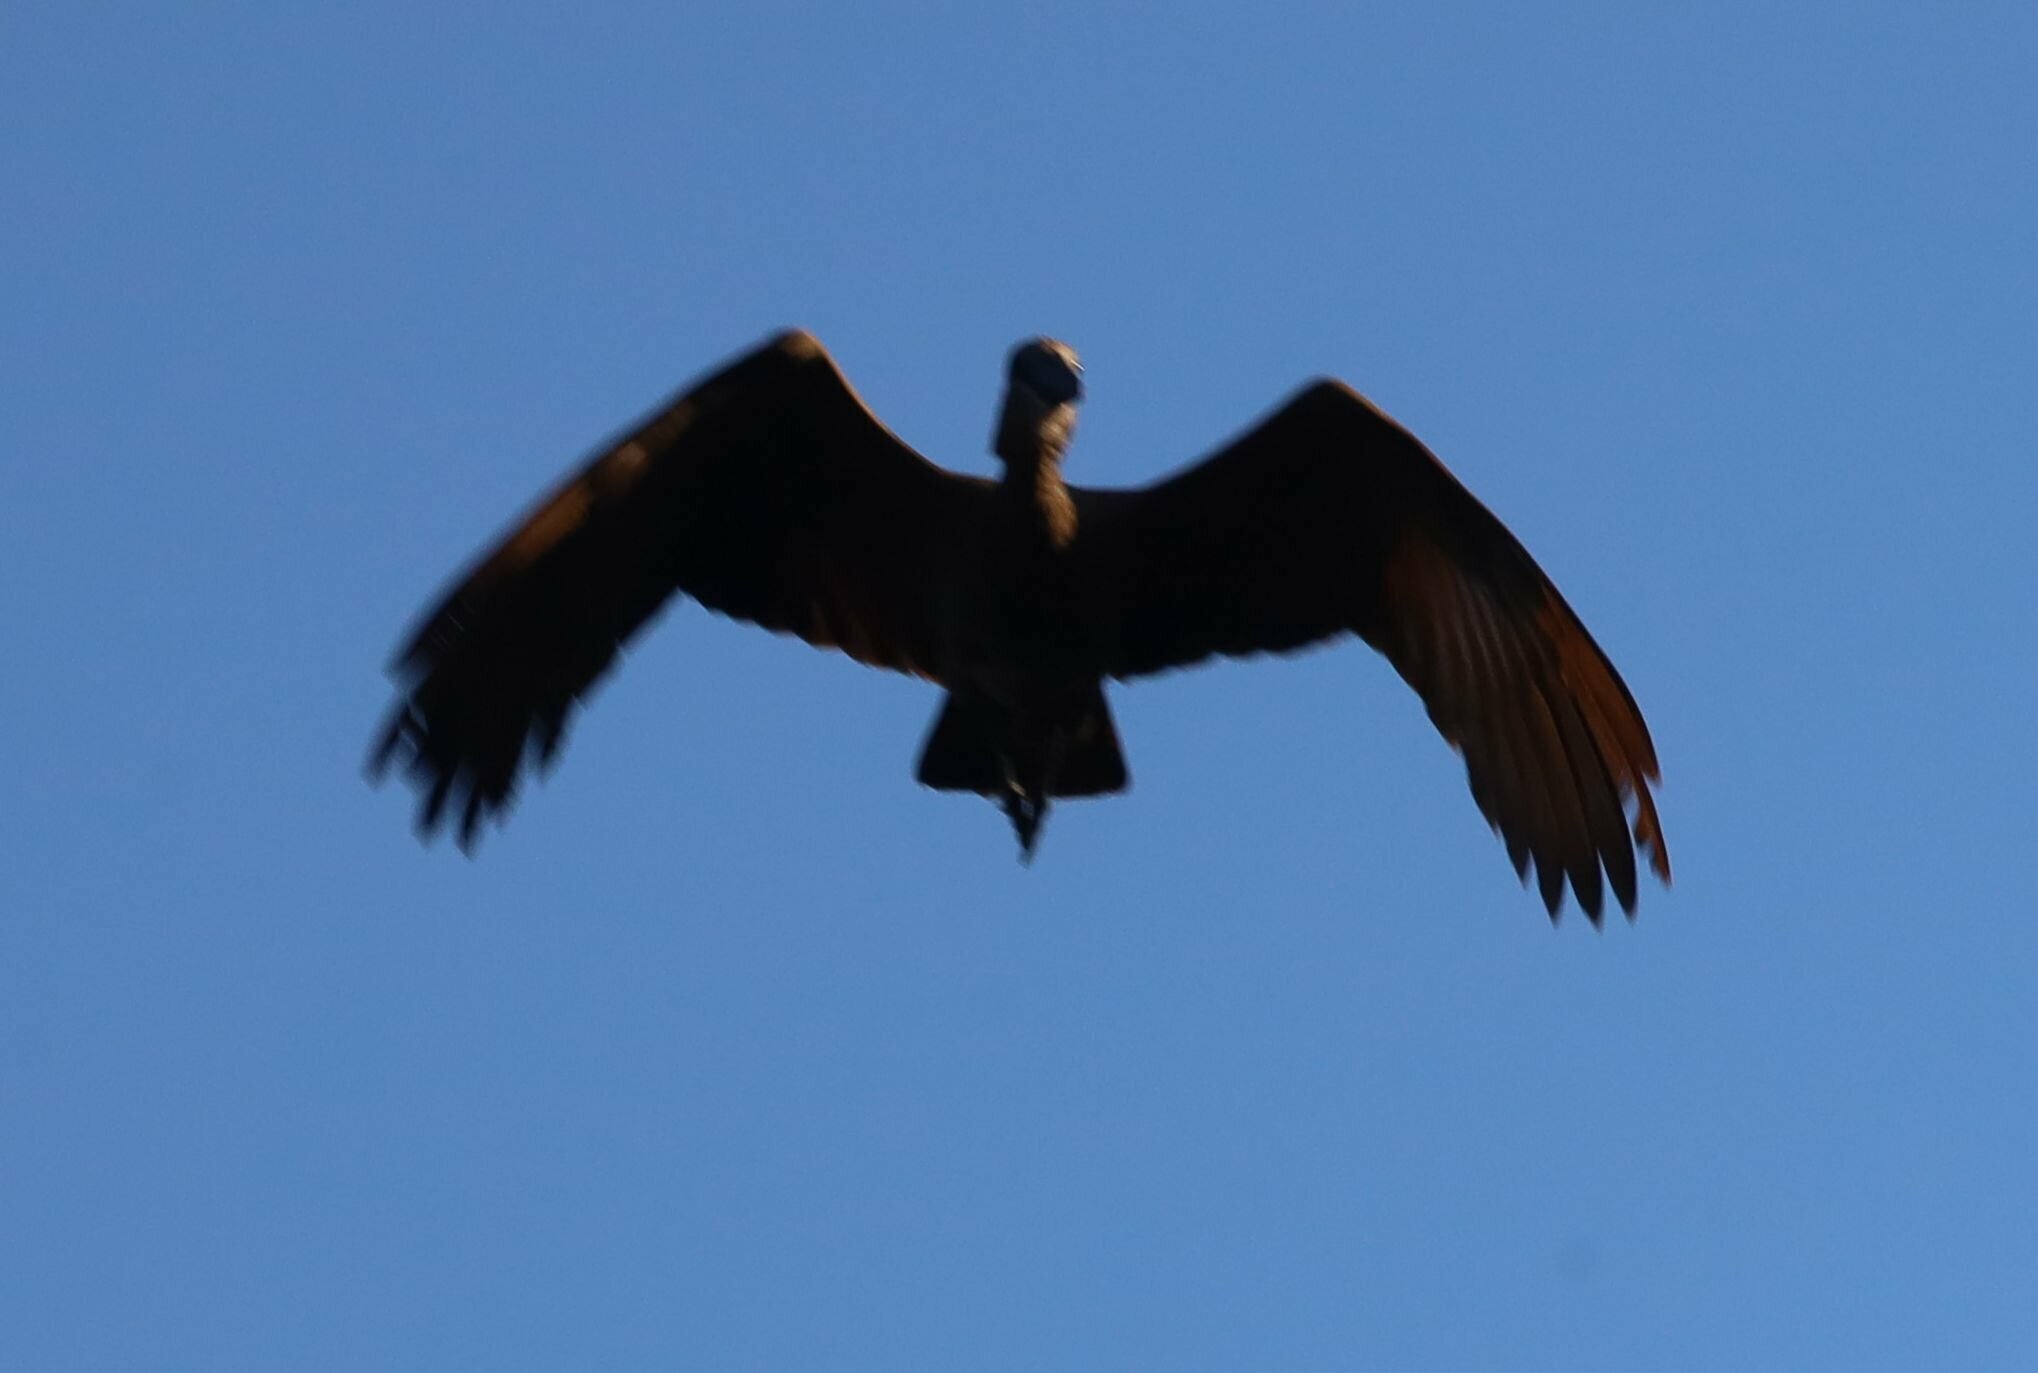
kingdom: Animalia
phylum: Chordata
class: Aves
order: Pelecaniformes
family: Scopidae
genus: Scopus
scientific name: Scopus umbretta
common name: Hamerkop
